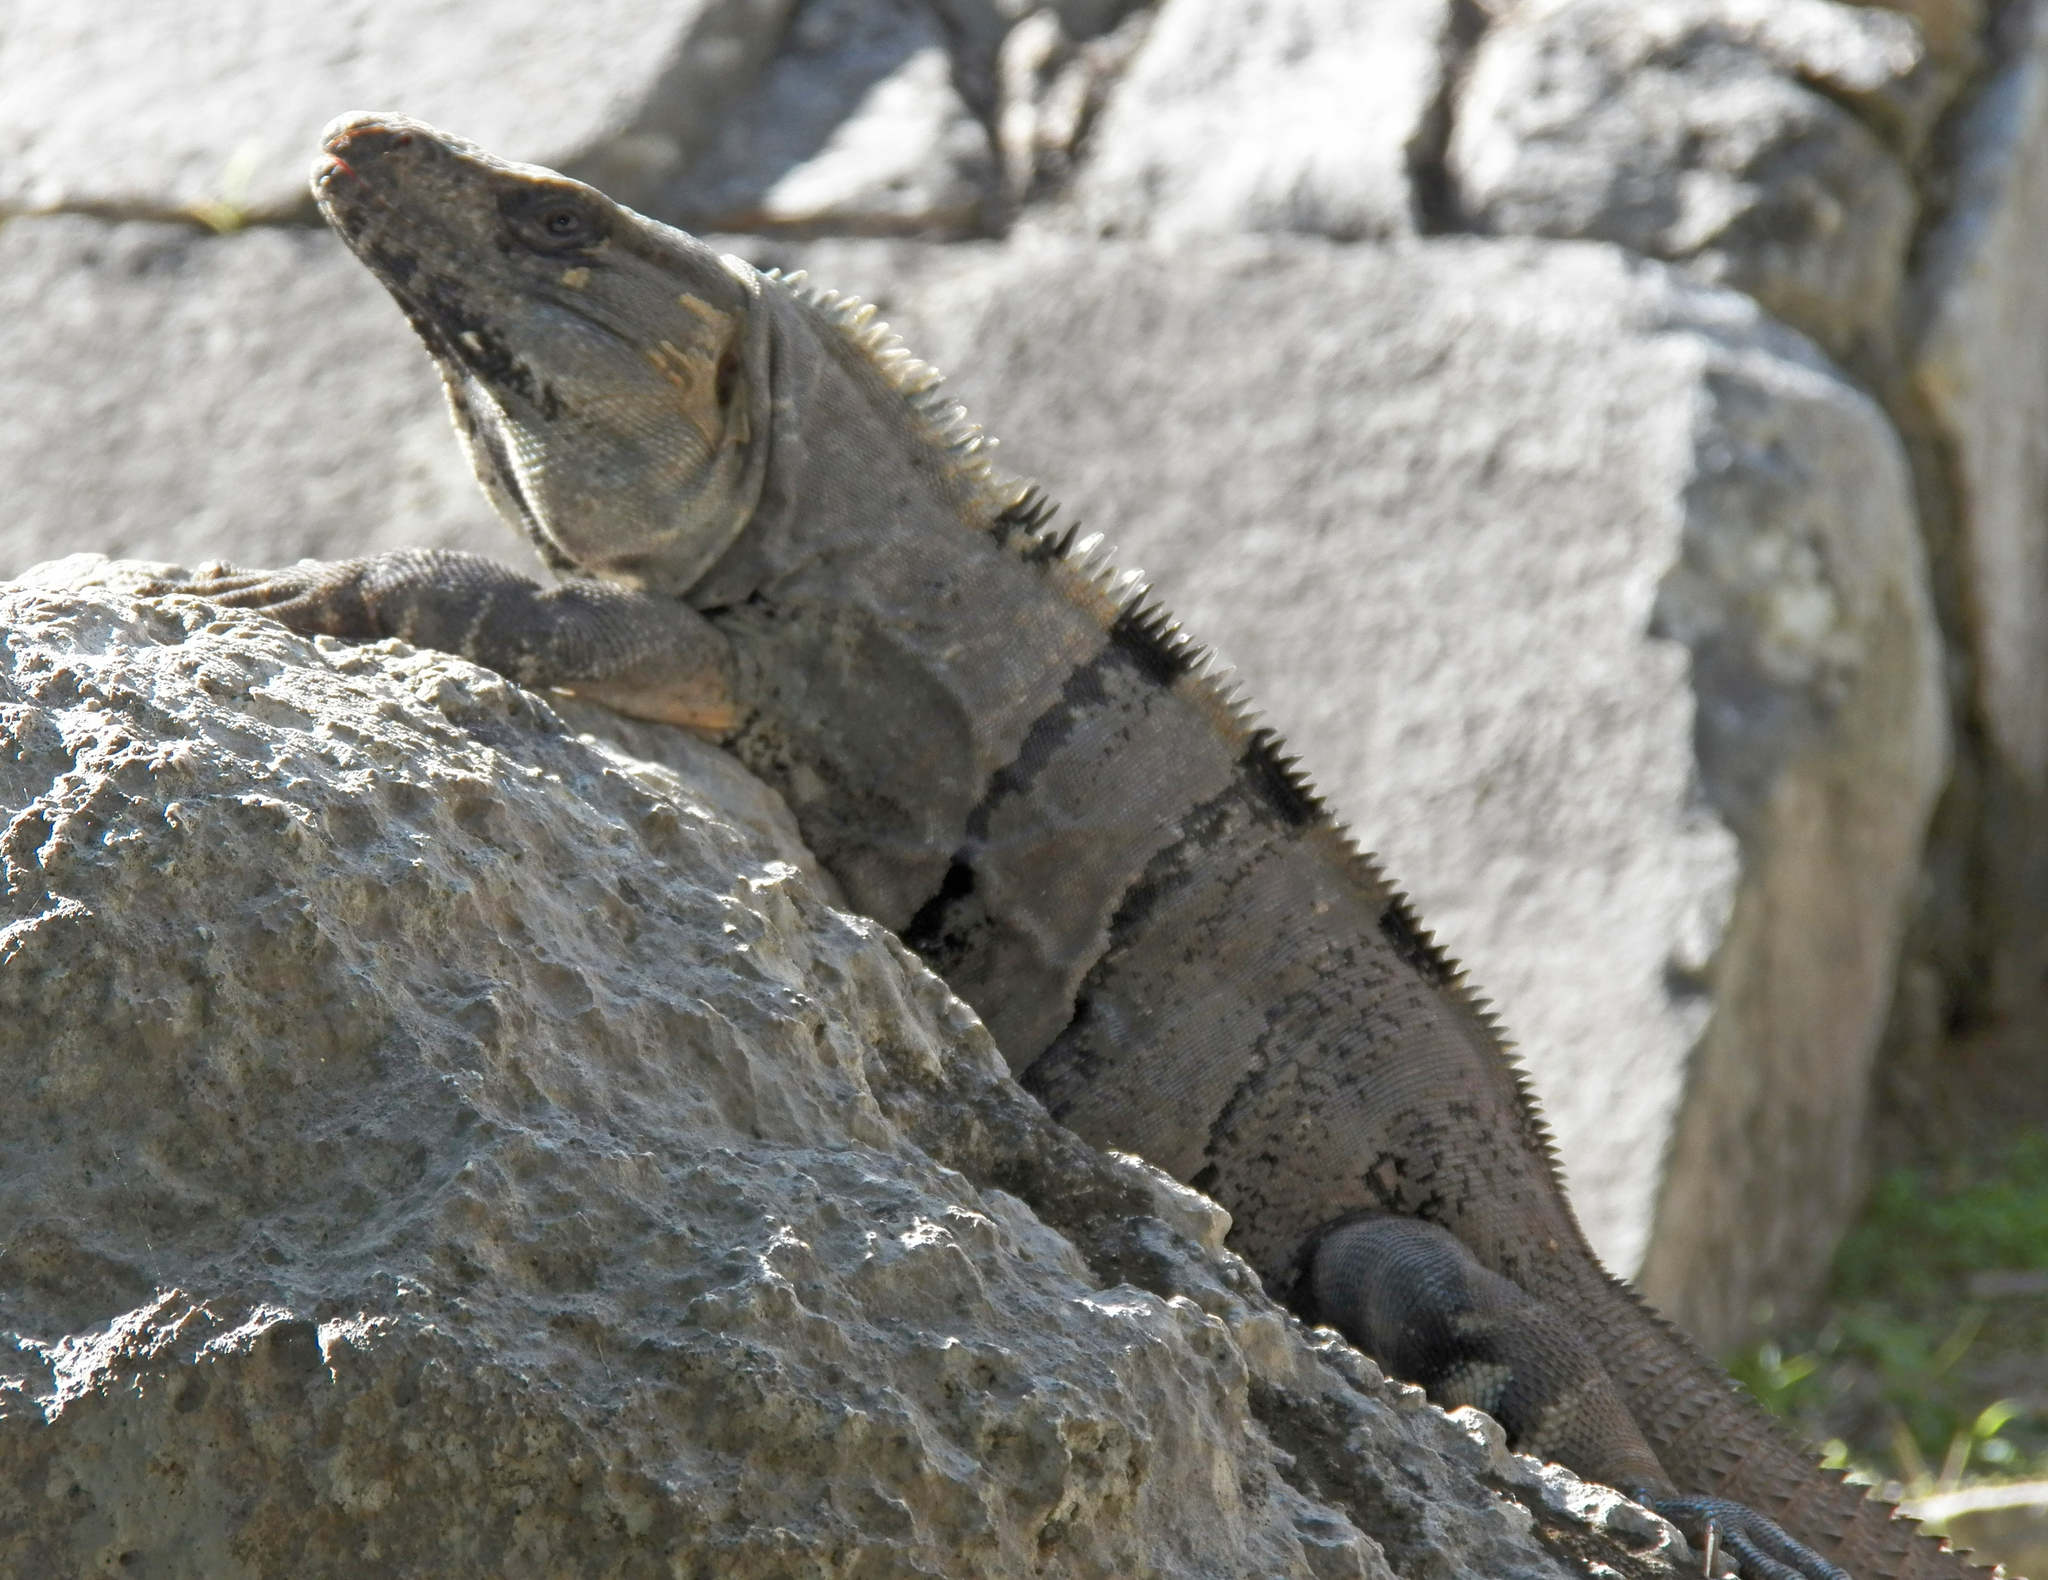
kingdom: Animalia
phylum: Chordata
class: Squamata
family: Iguanidae
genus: Ctenosaura
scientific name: Ctenosaura similis
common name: Black spiny-tailed iguana
